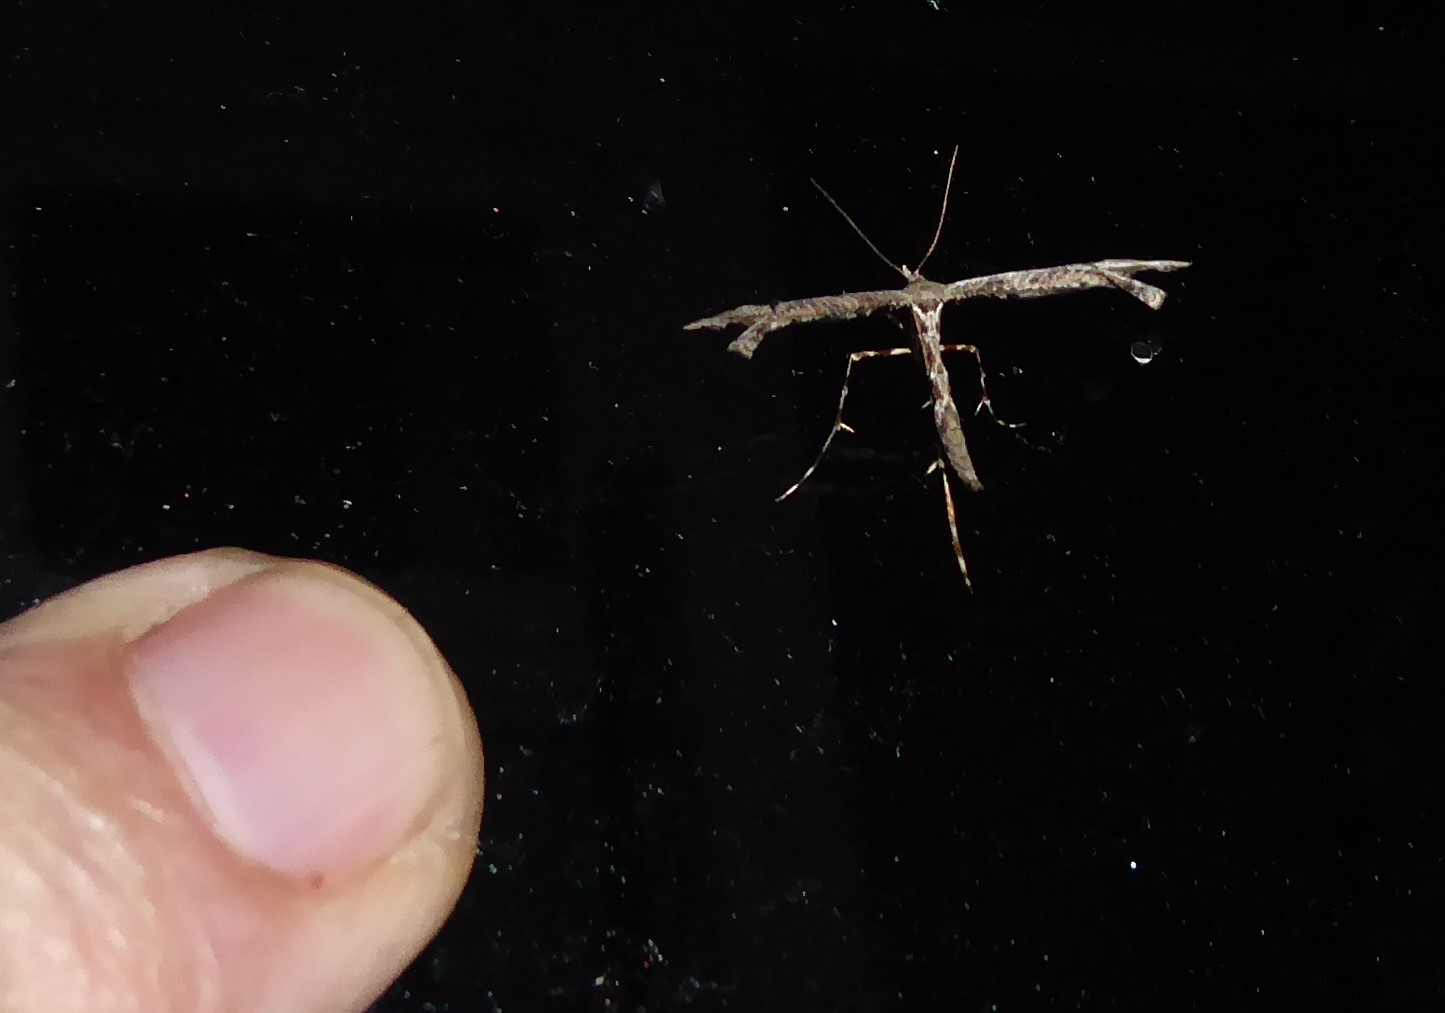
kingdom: Animalia
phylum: Arthropoda
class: Insecta
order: Lepidoptera
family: Pterophoridae
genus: Amblyptilia
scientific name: Amblyptilia repletalis
